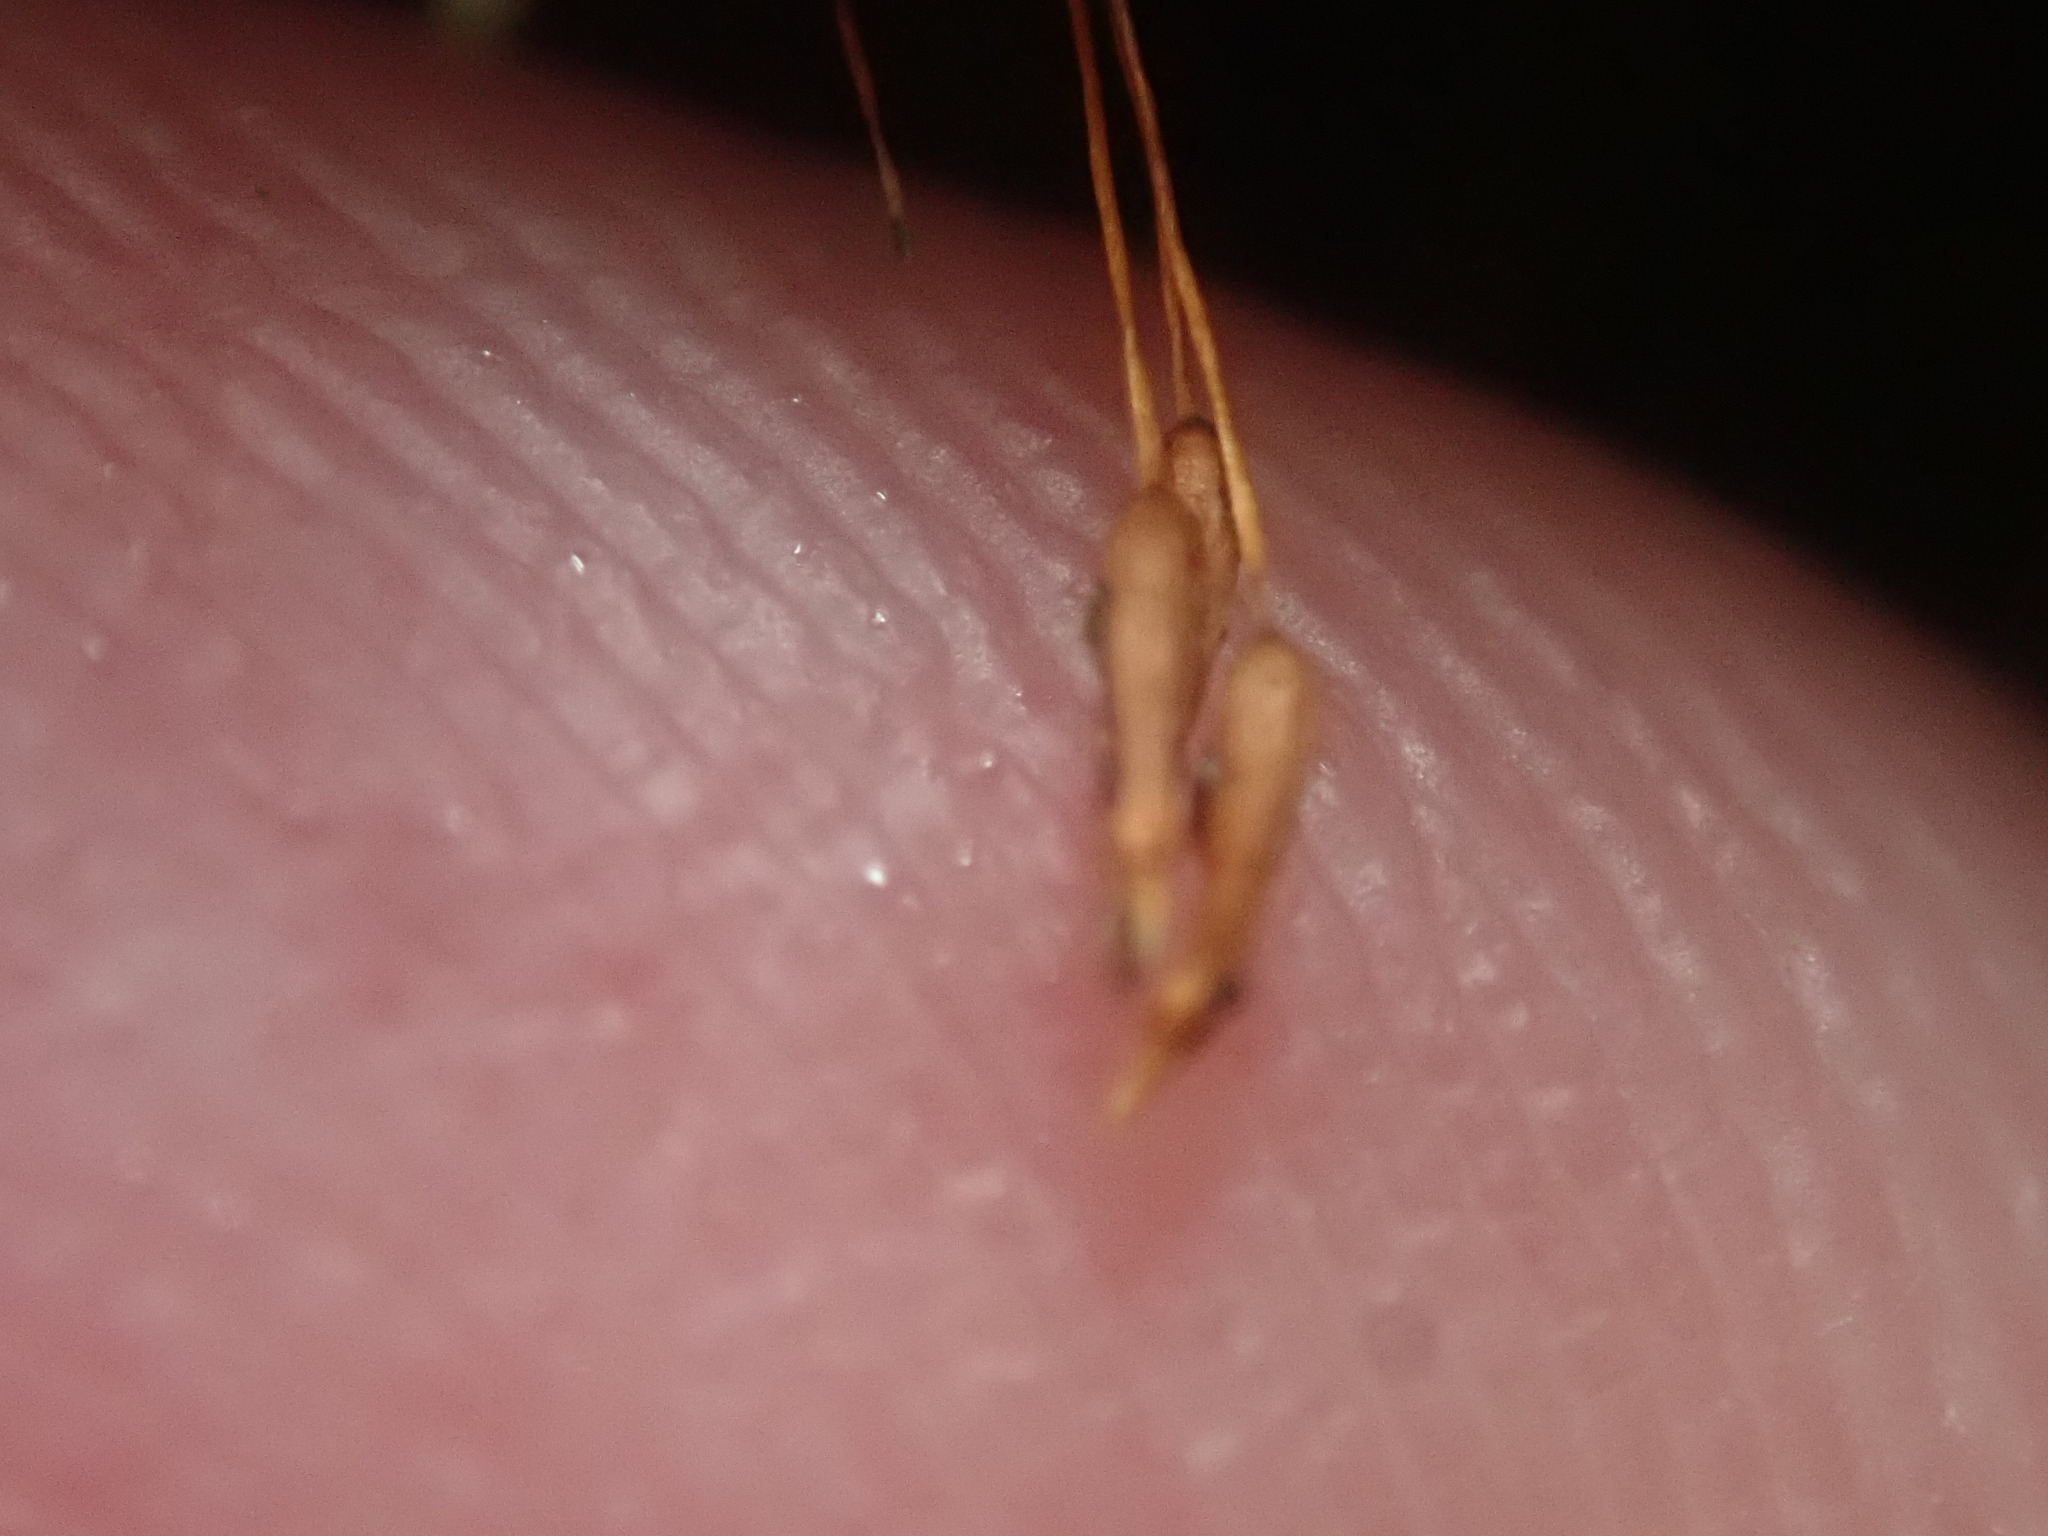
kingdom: Plantae
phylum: Bryophyta
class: Polytrichopsida
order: Tetraphidales
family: Tetraphidaceae
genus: Tetraphis
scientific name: Tetraphis pellucida
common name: Common four-toothed moss
